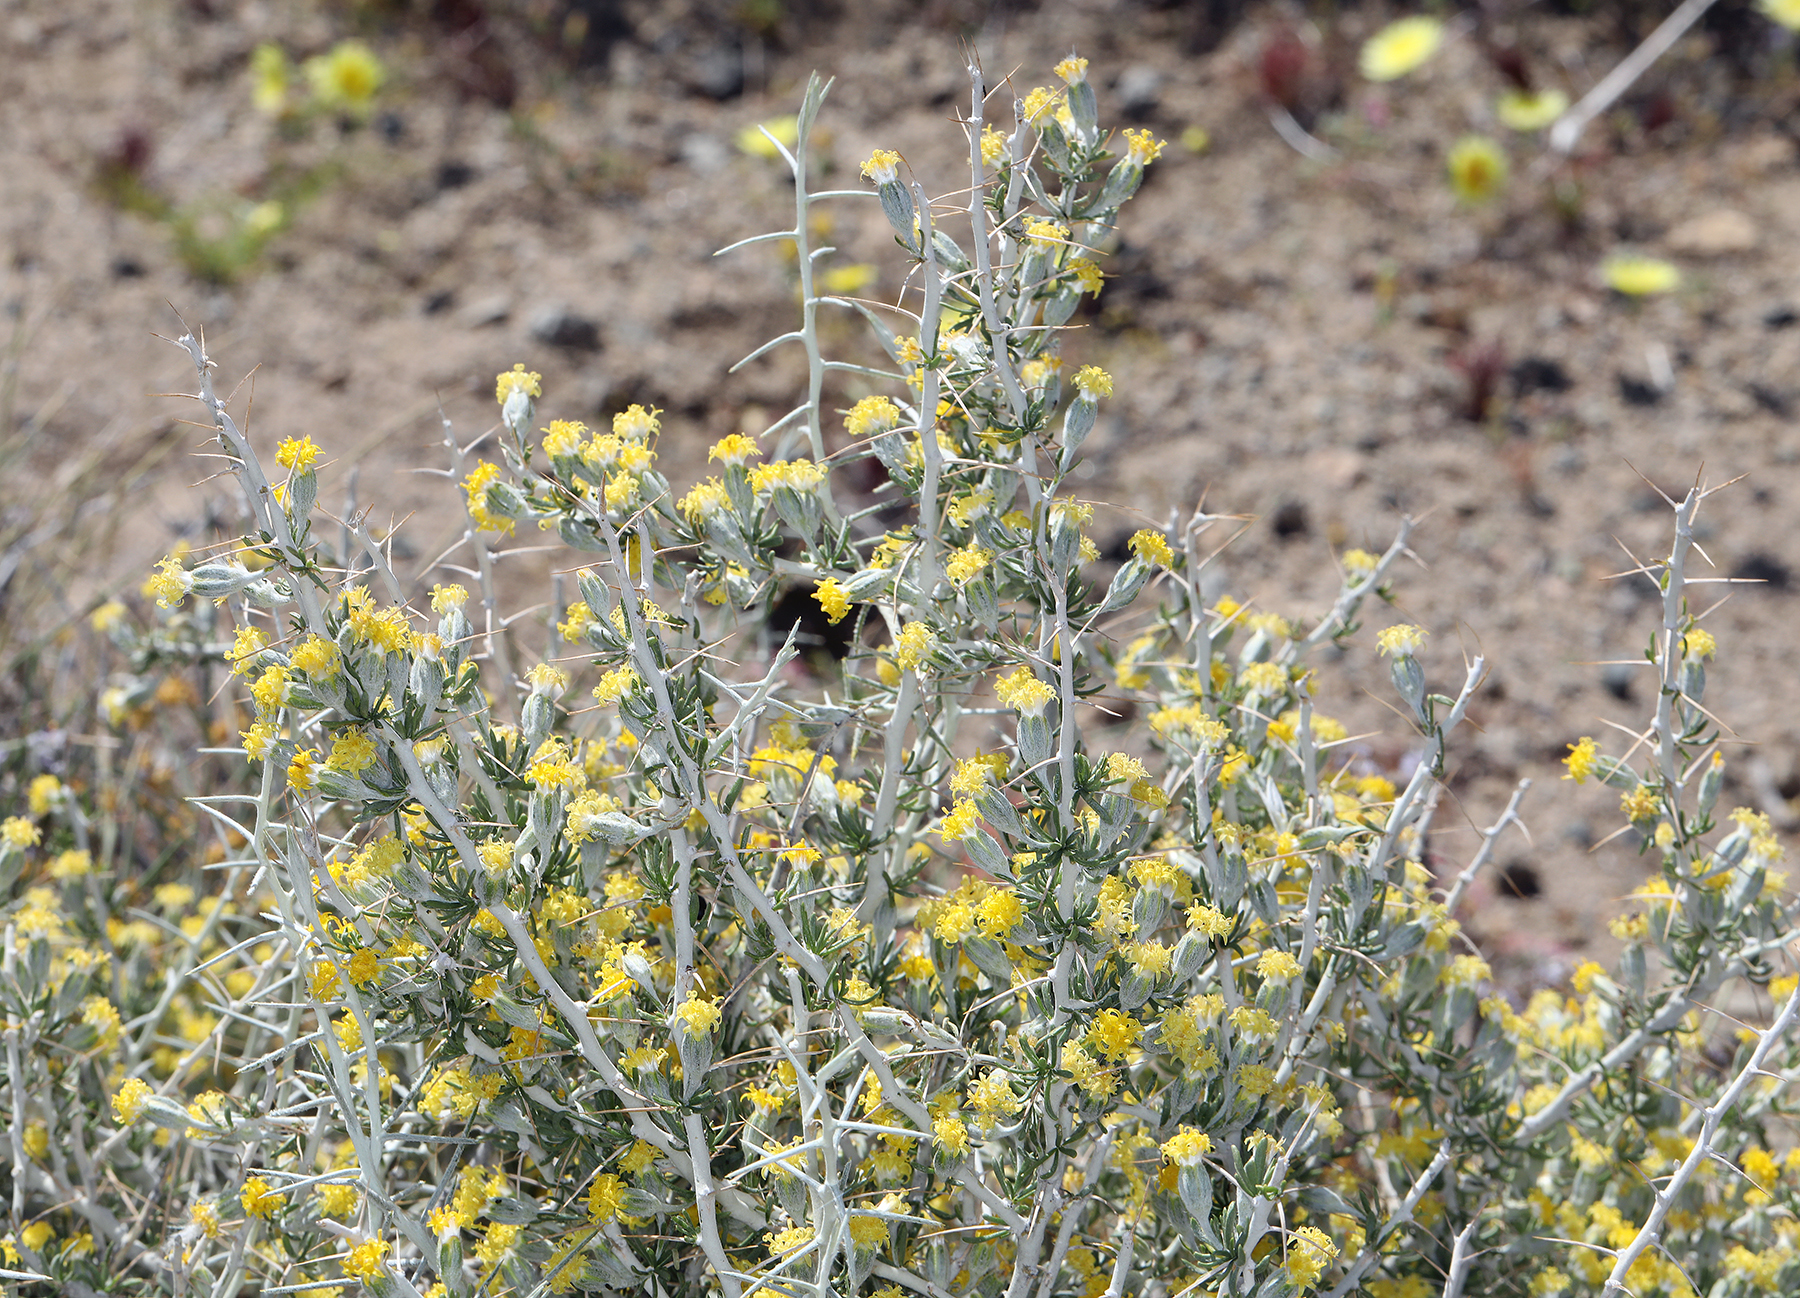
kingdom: Plantae
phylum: Tracheophyta
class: Magnoliopsida
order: Asterales
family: Asteraceae
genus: Tetradymia
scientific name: Tetradymia axillaris
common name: Long-spine horsebrush
